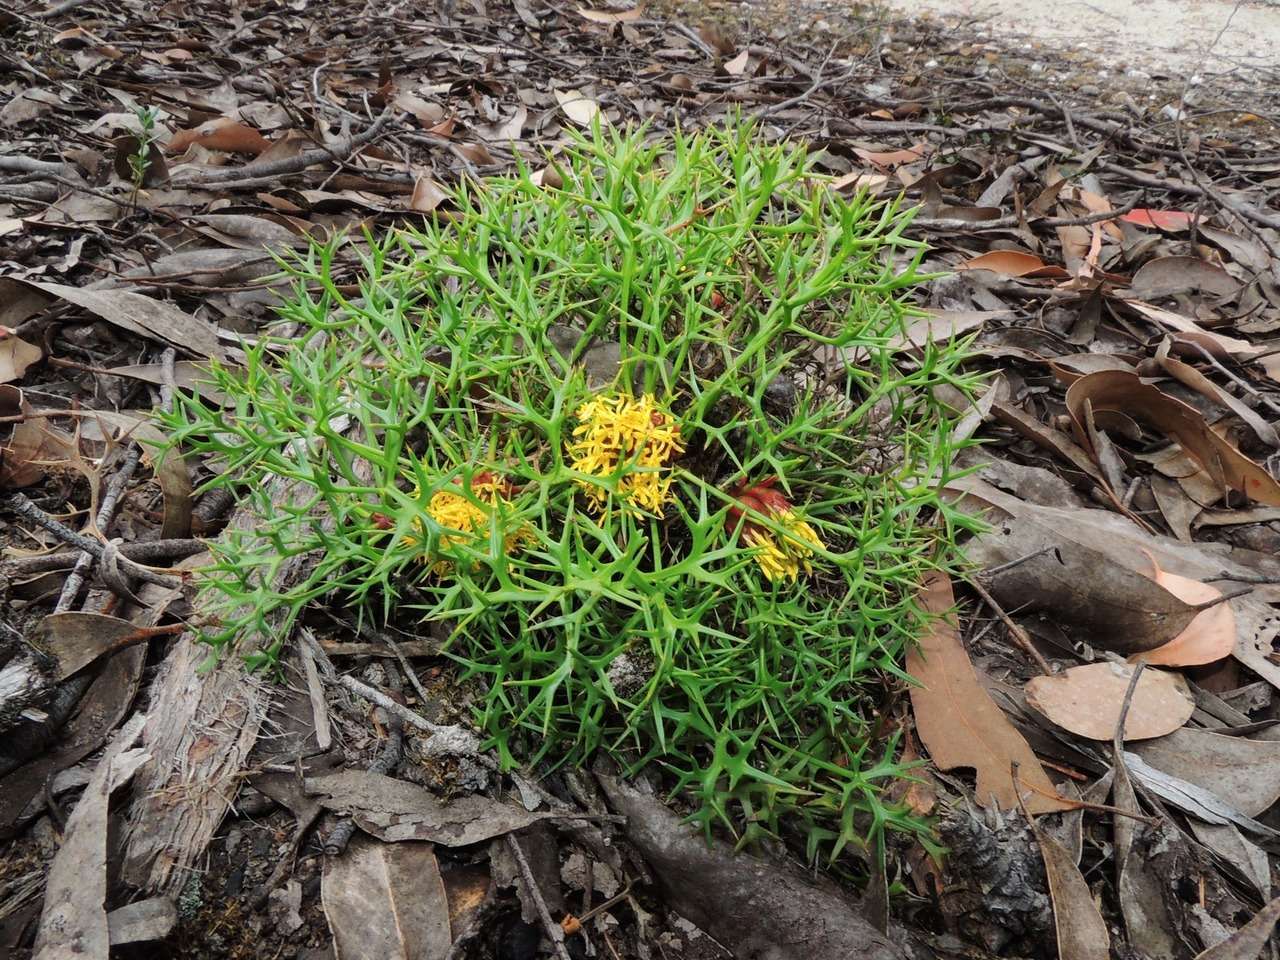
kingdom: Plantae
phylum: Tracheophyta
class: Magnoliopsida
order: Proteales
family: Proteaceae
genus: Isopogon
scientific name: Isopogon ceratophyllus
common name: Horny cone-bush
